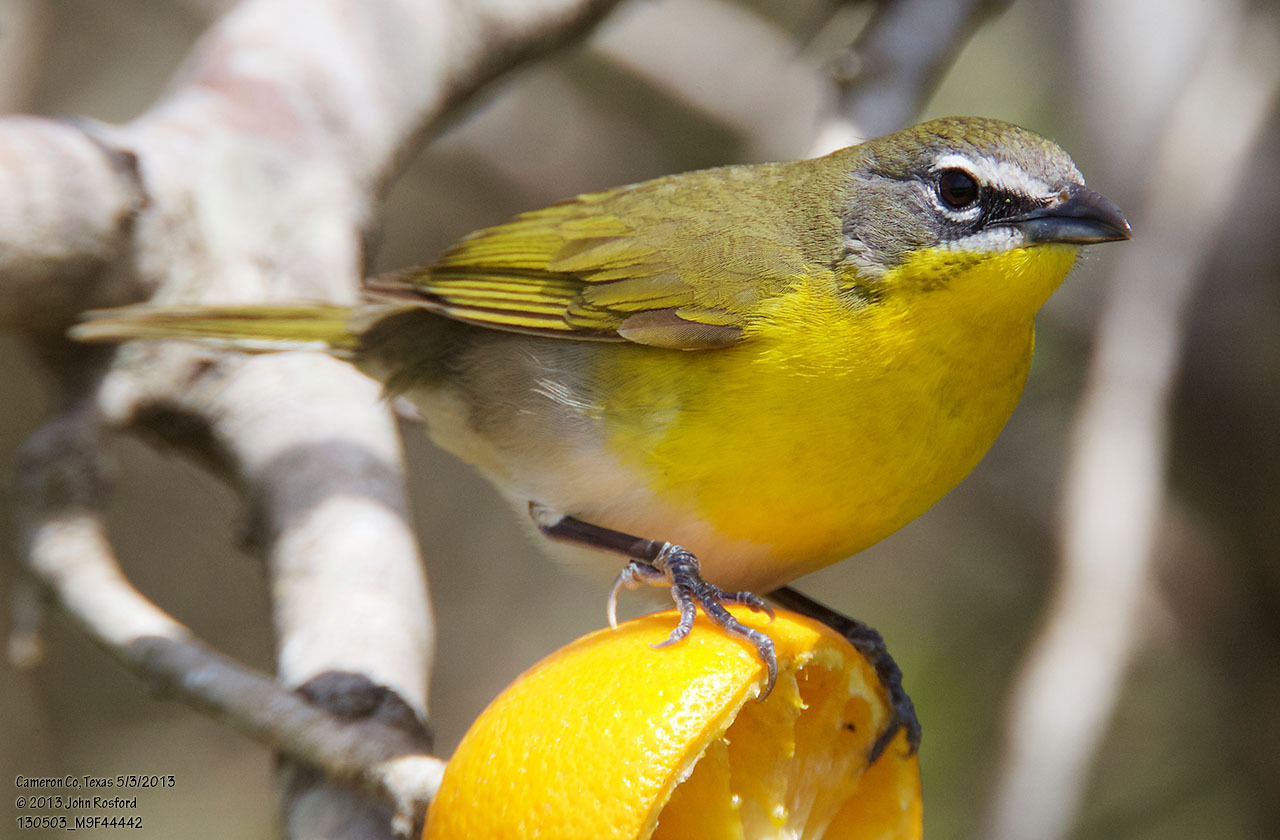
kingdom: Animalia
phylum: Chordata
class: Aves
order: Passeriformes
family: Parulidae
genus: Icteria
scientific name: Icteria virens
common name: Yellow-breasted chat
